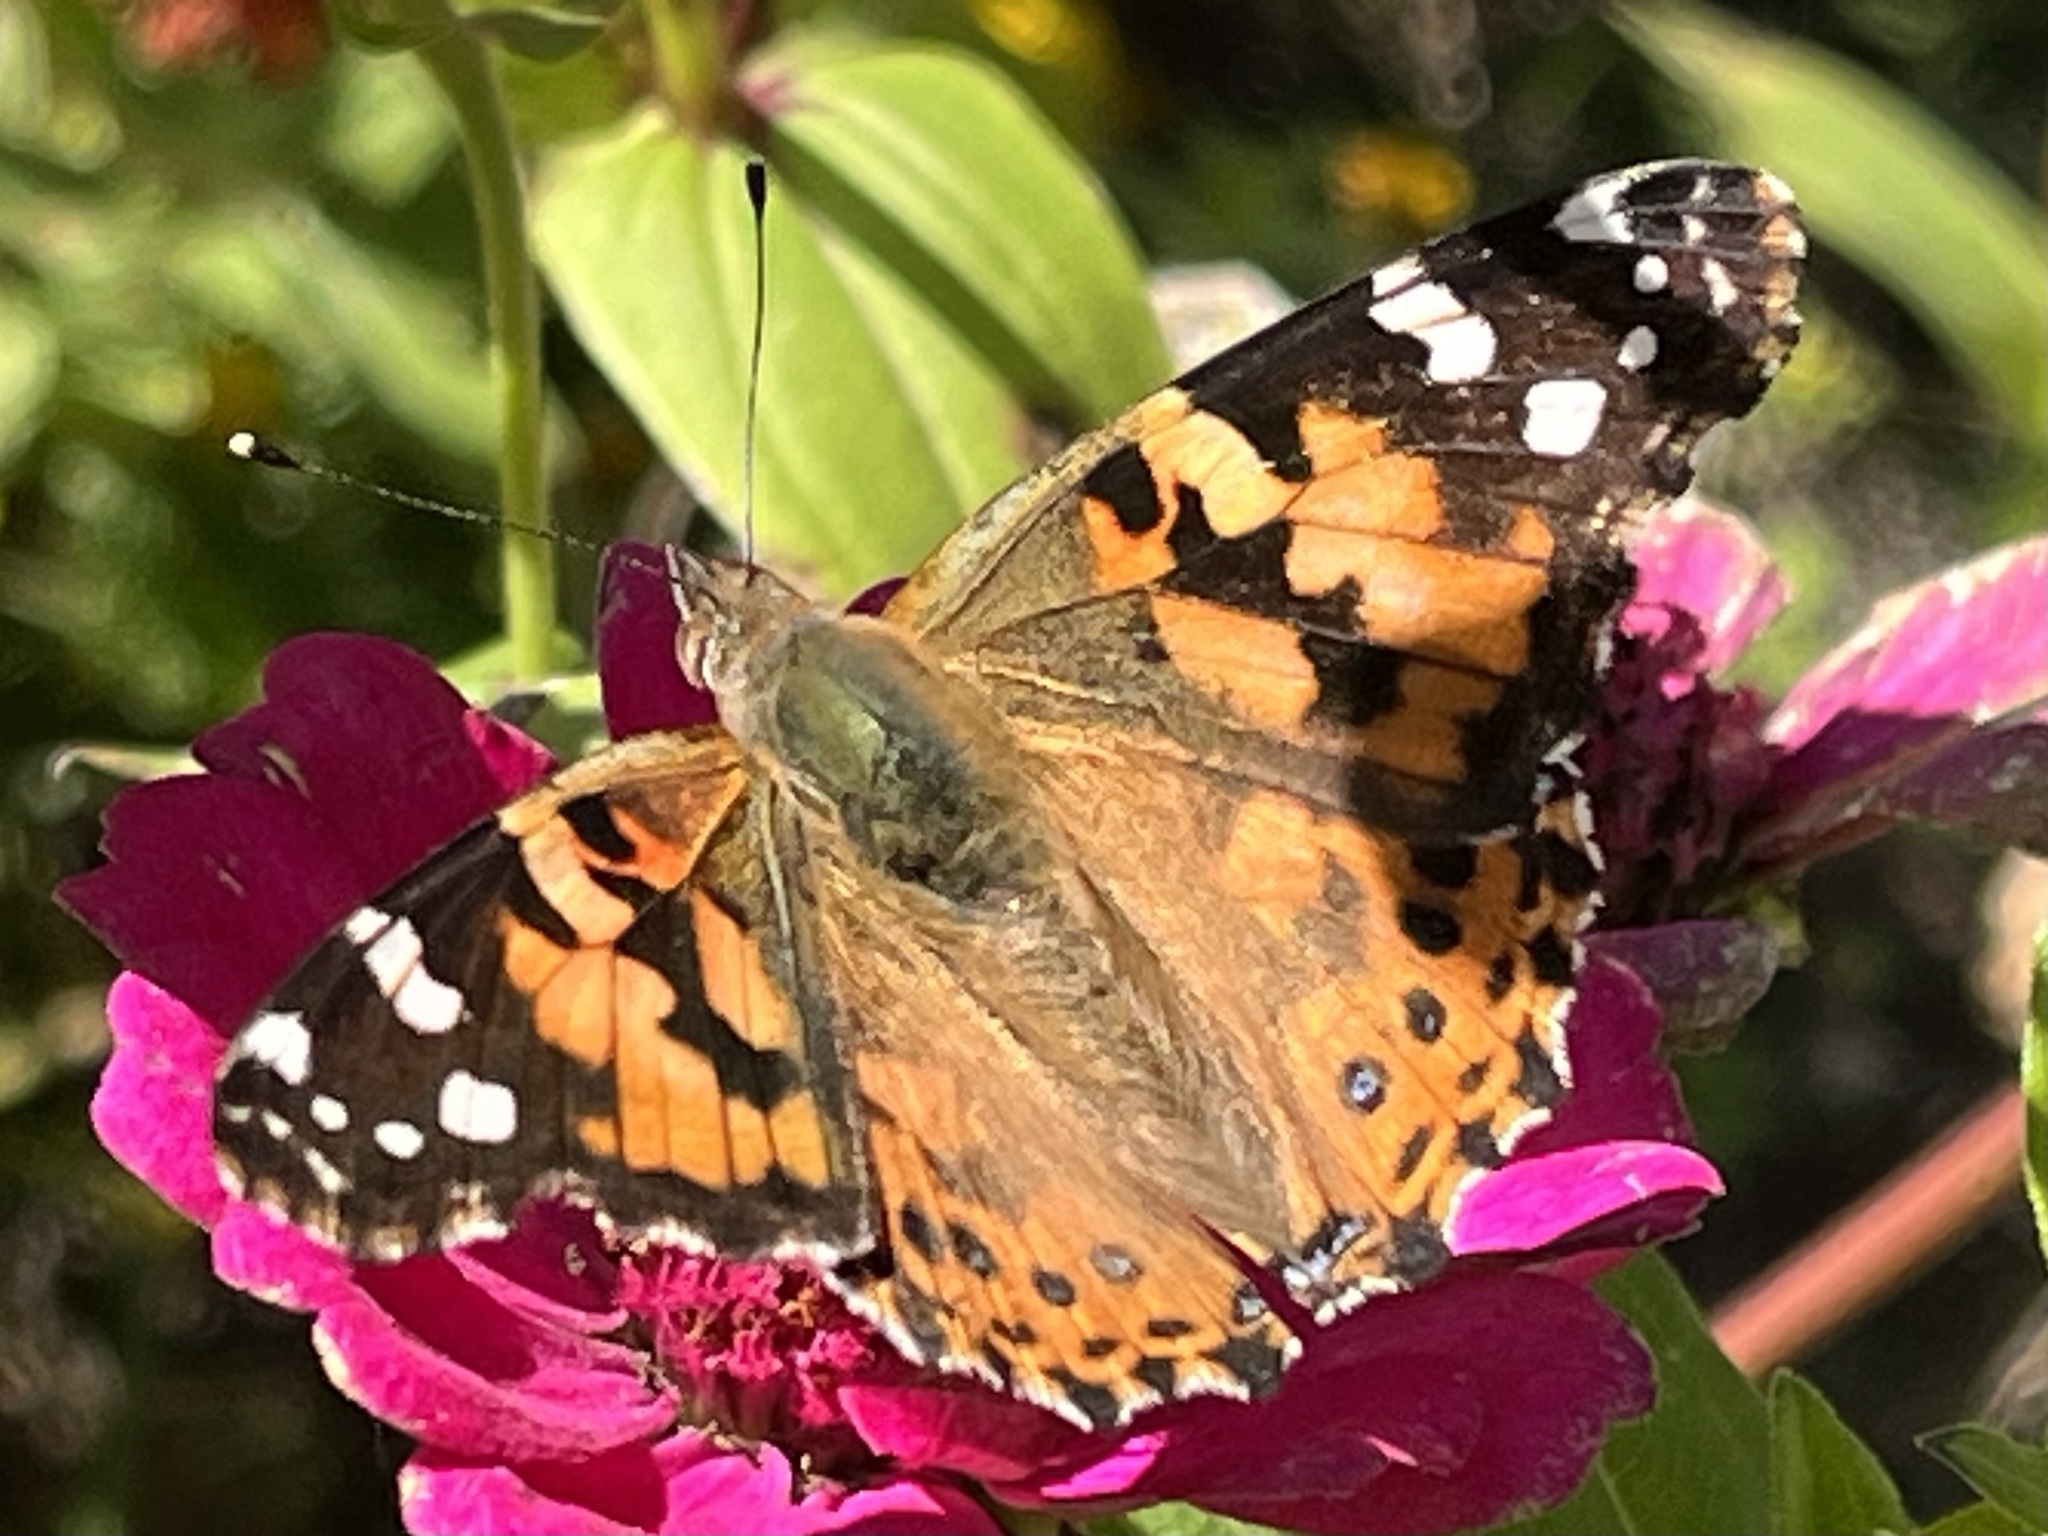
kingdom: Animalia
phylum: Arthropoda
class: Insecta
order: Lepidoptera
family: Nymphalidae
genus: Vanessa
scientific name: Vanessa cardui
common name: Painted lady
